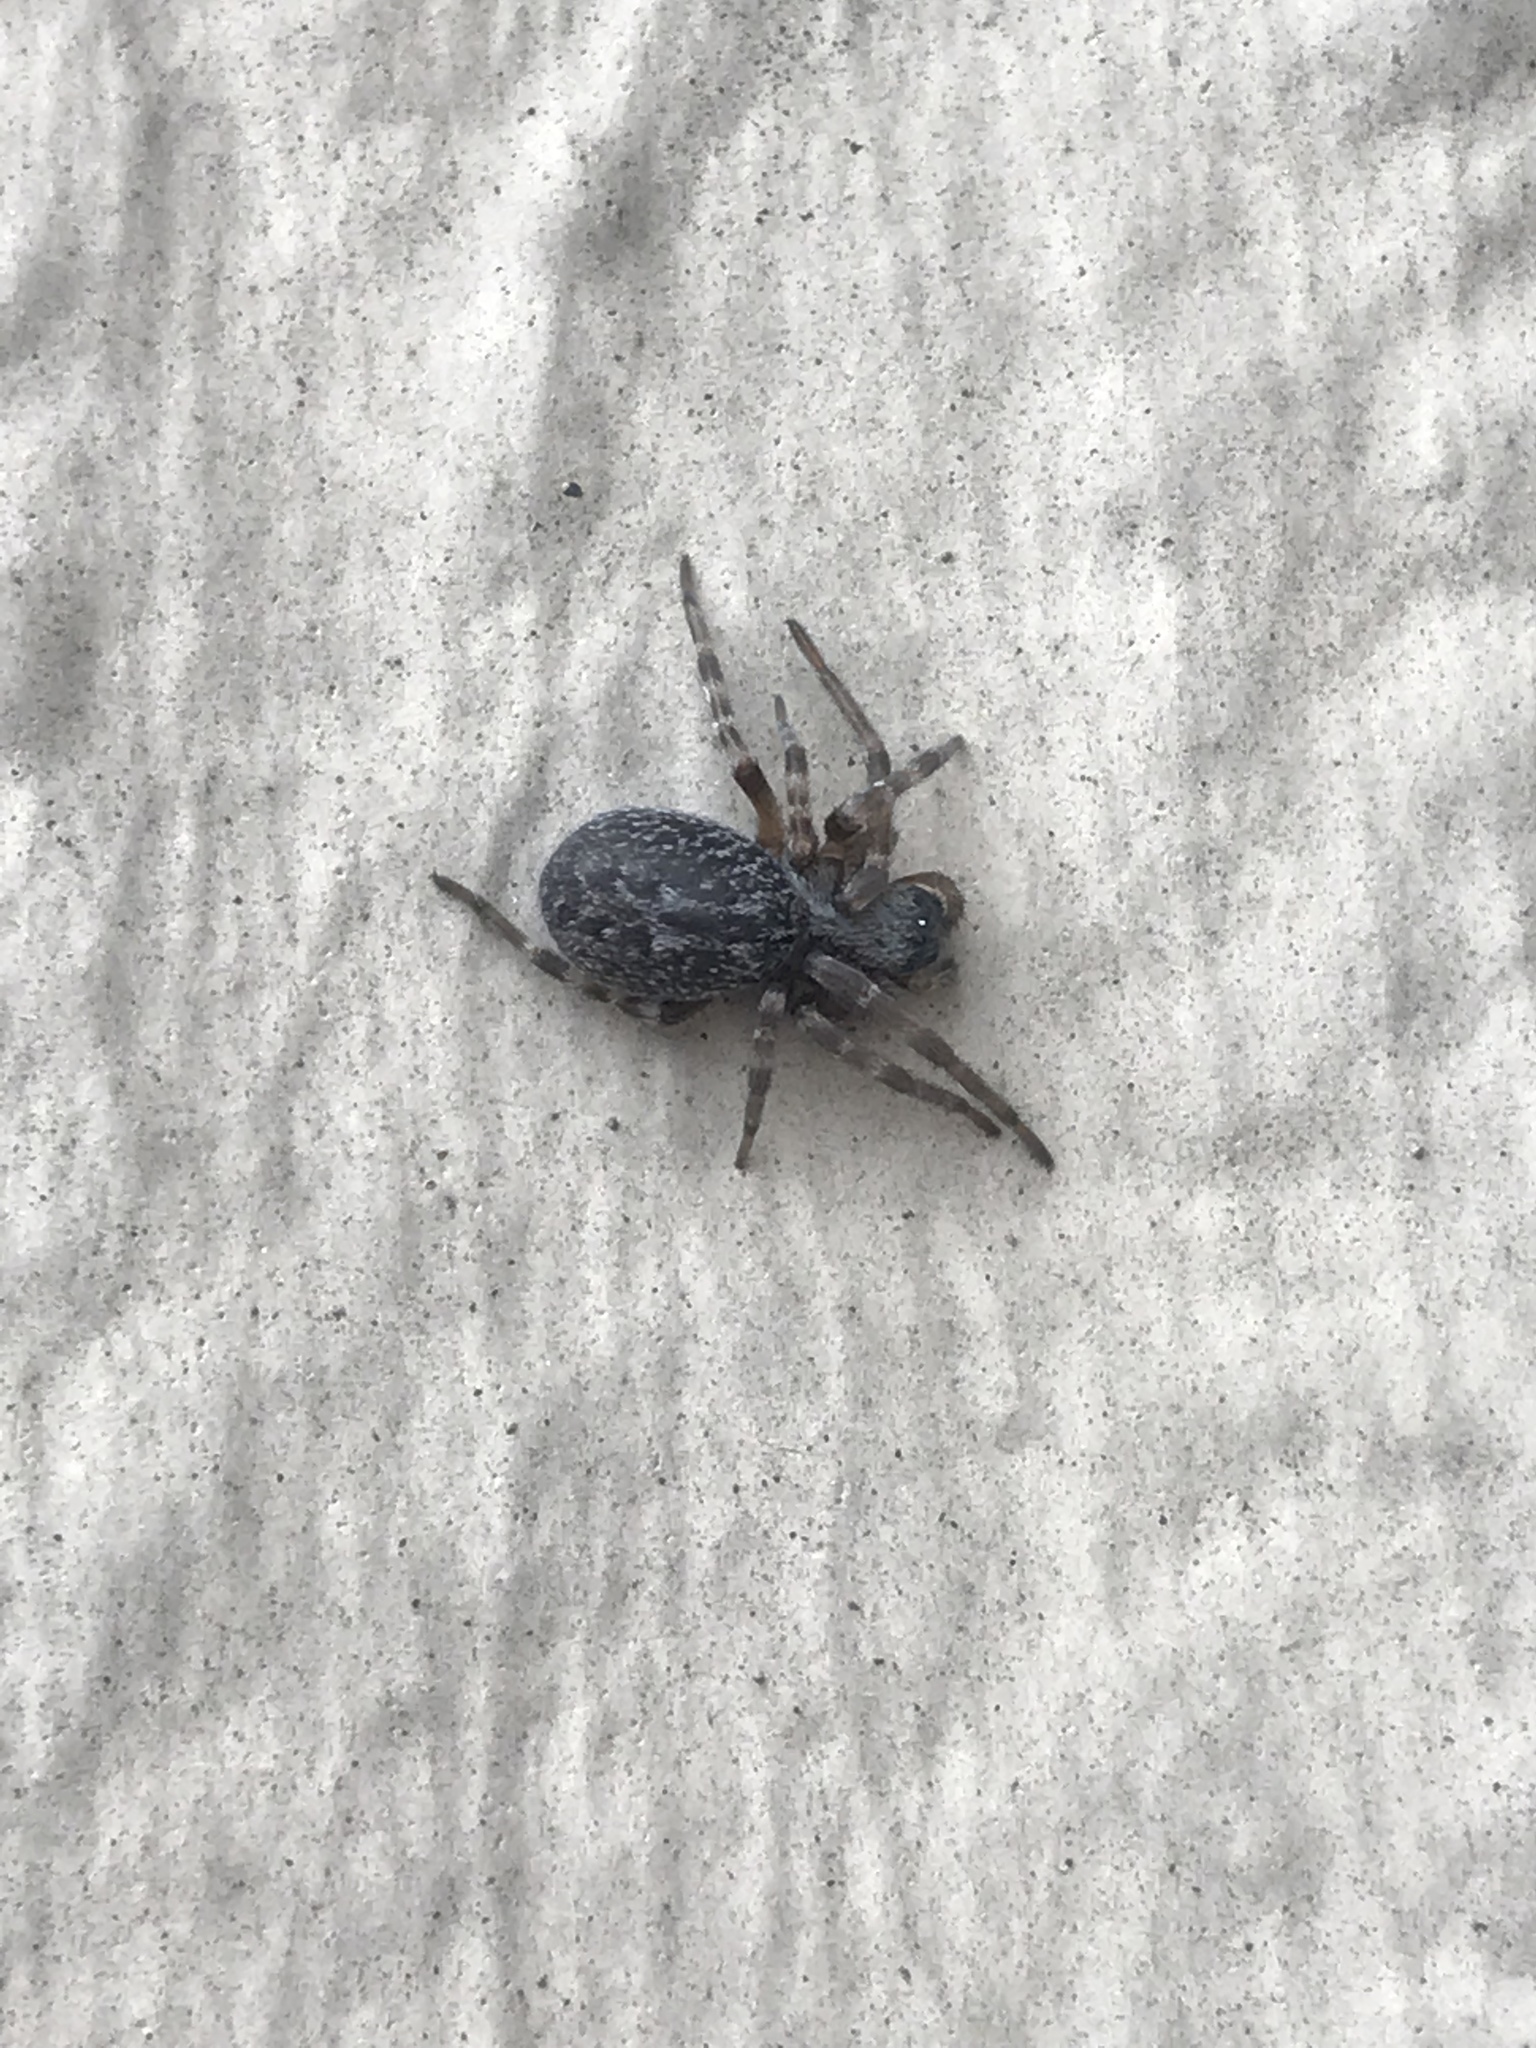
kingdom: Animalia
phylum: Arthropoda
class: Arachnida
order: Araneae
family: Desidae
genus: Badumna
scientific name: Badumna longinqua
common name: Gray house spider
